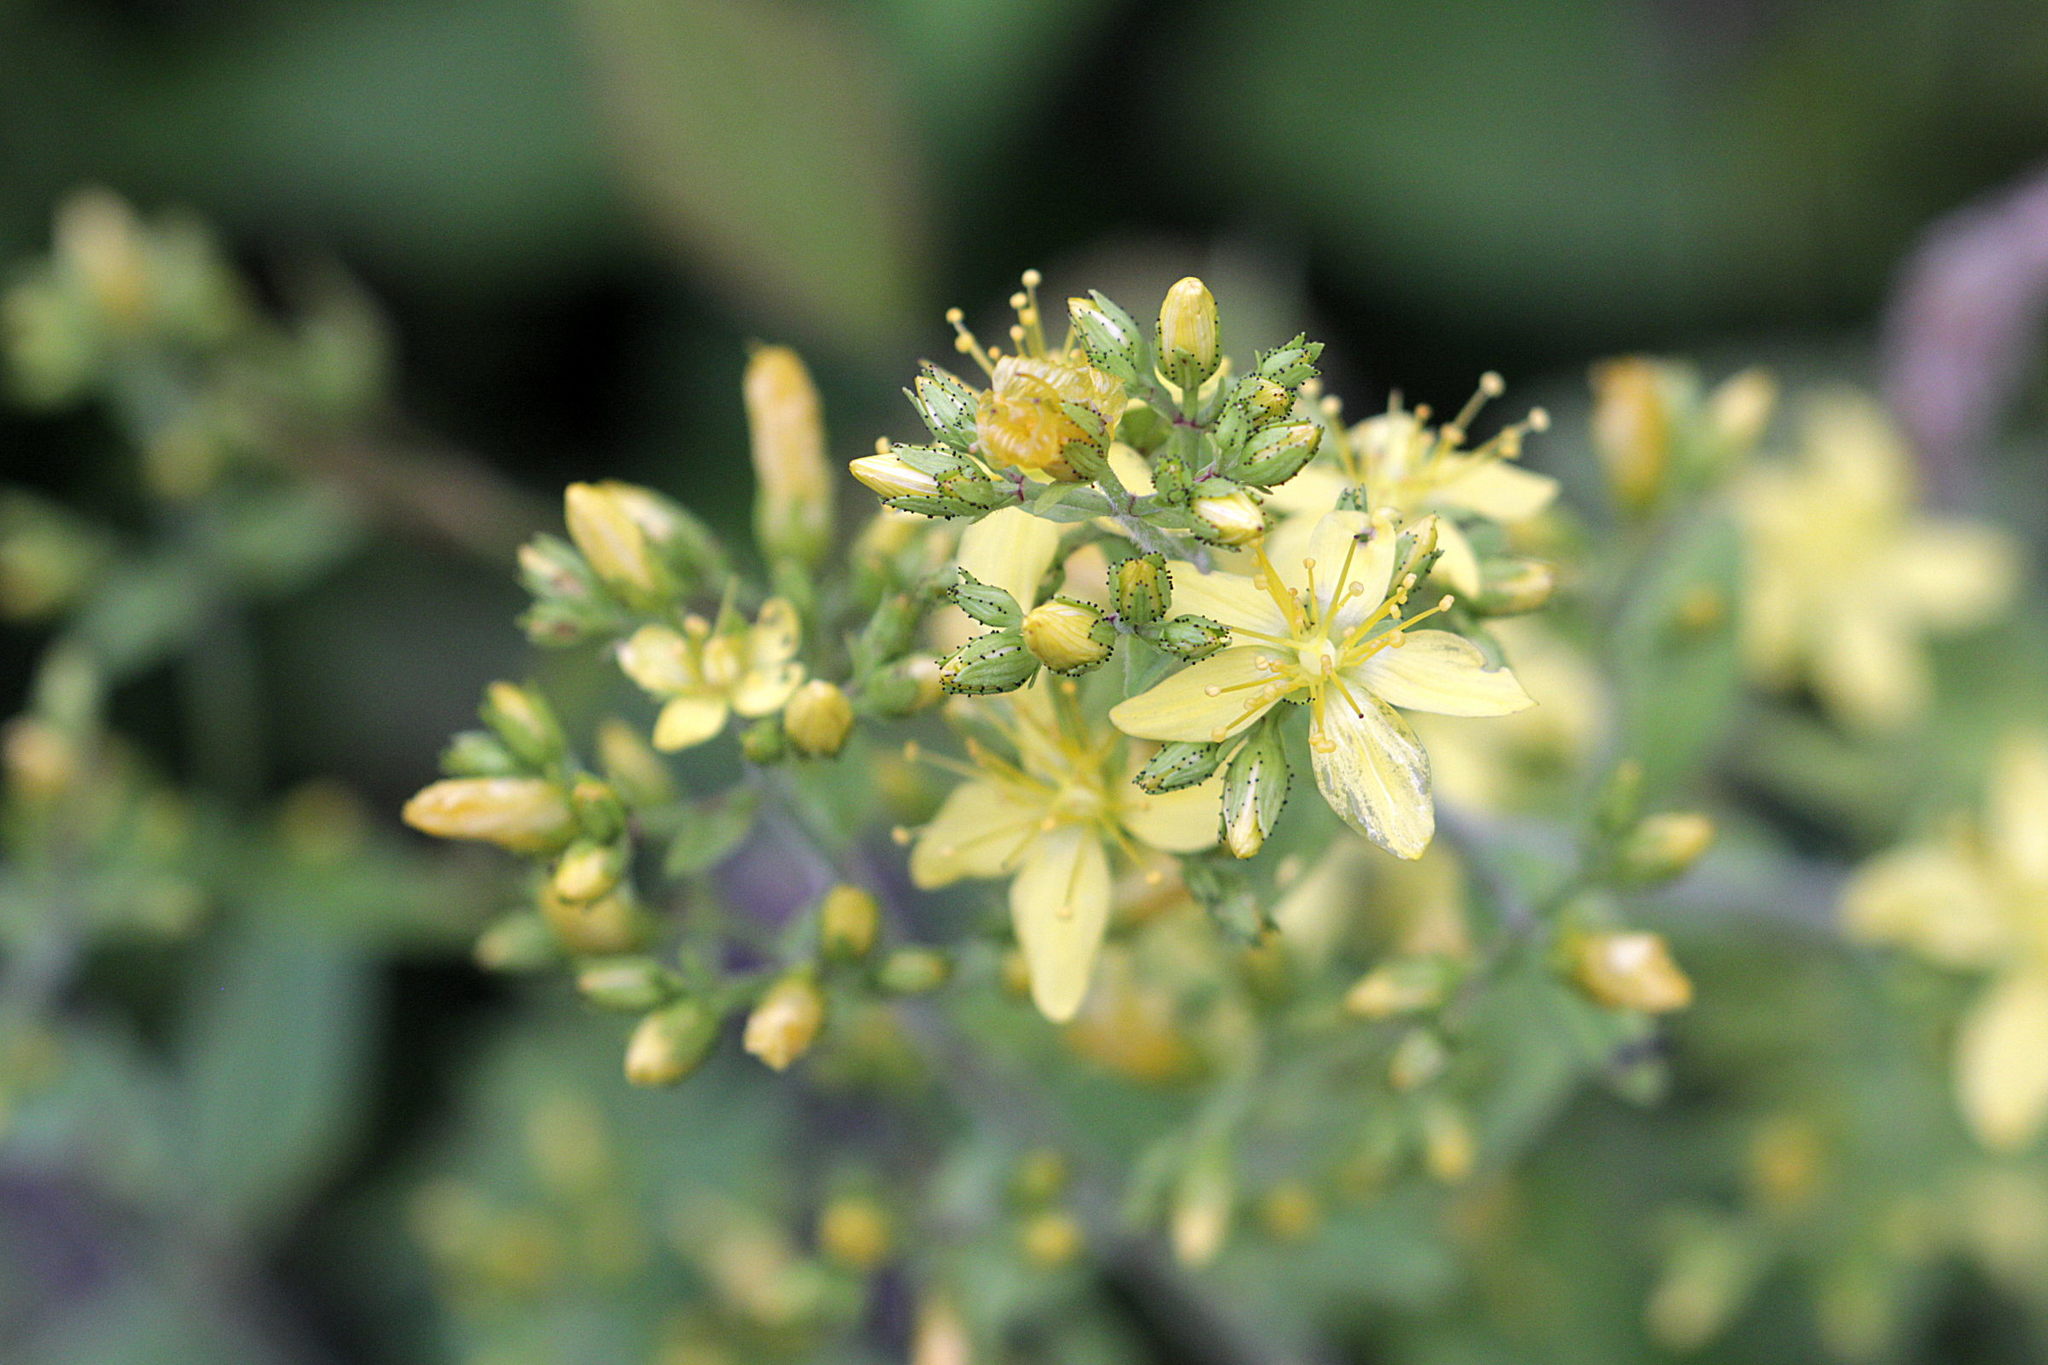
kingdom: Plantae
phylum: Tracheophyta
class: Magnoliopsida
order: Malpighiales
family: Hypericaceae
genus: Hypericum
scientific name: Hypericum hirsutum
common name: Hairy st. john's-wort
